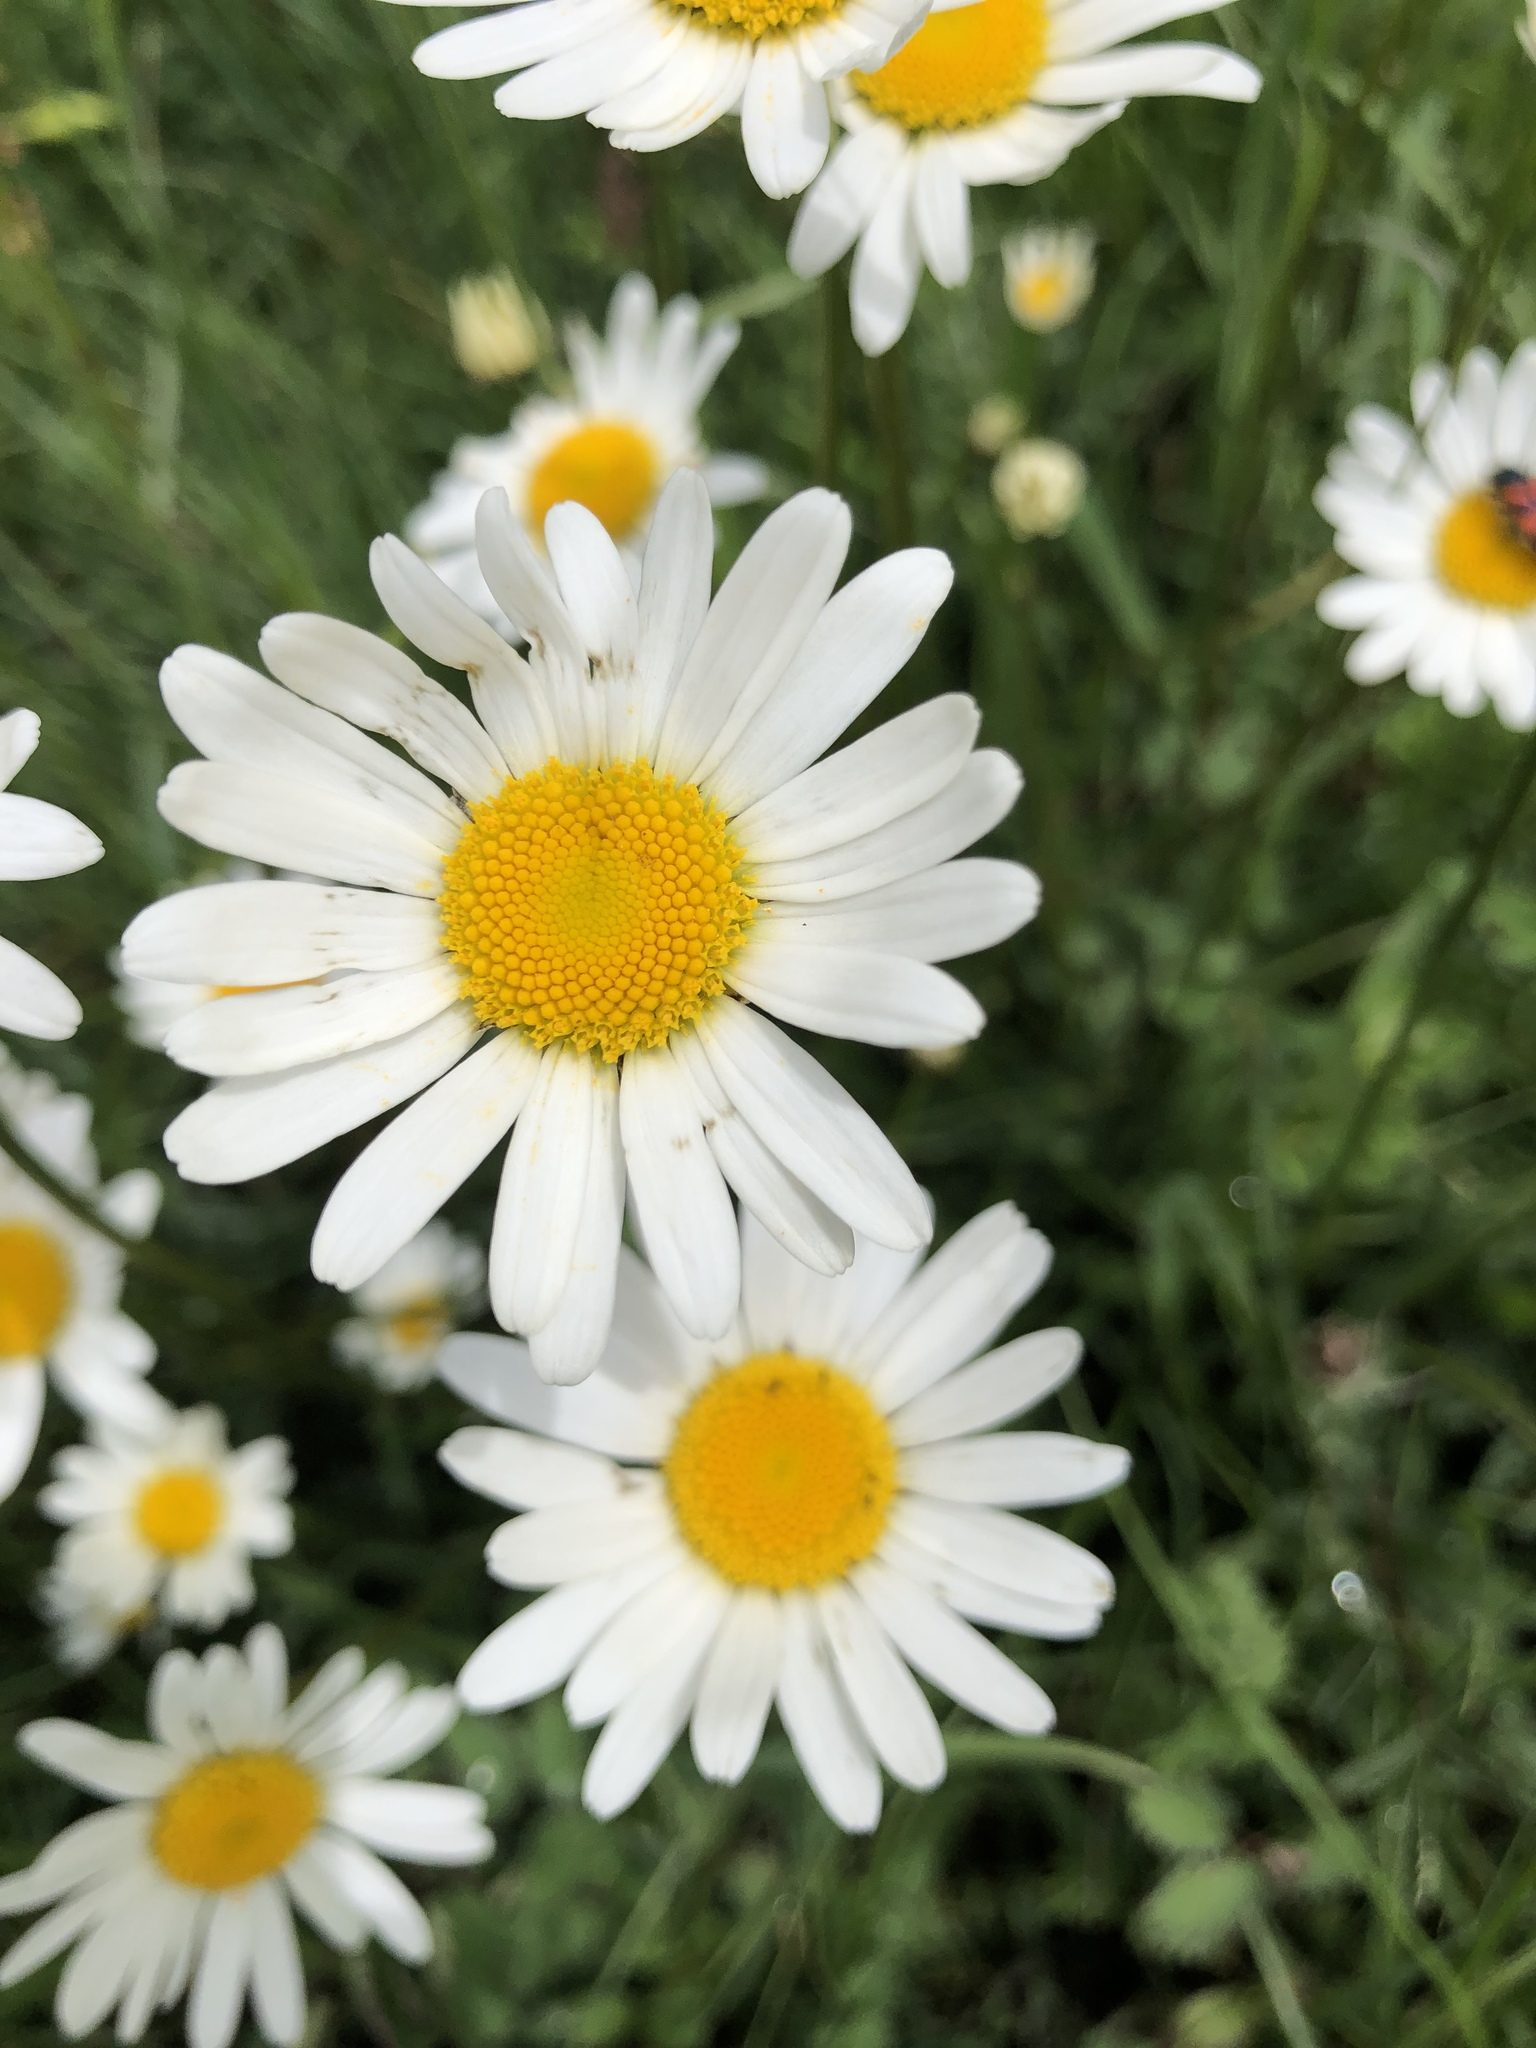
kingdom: Plantae
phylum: Tracheophyta
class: Magnoliopsida
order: Asterales
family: Asteraceae
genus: Leucanthemum
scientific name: Leucanthemum vulgare
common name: Oxeye daisy
